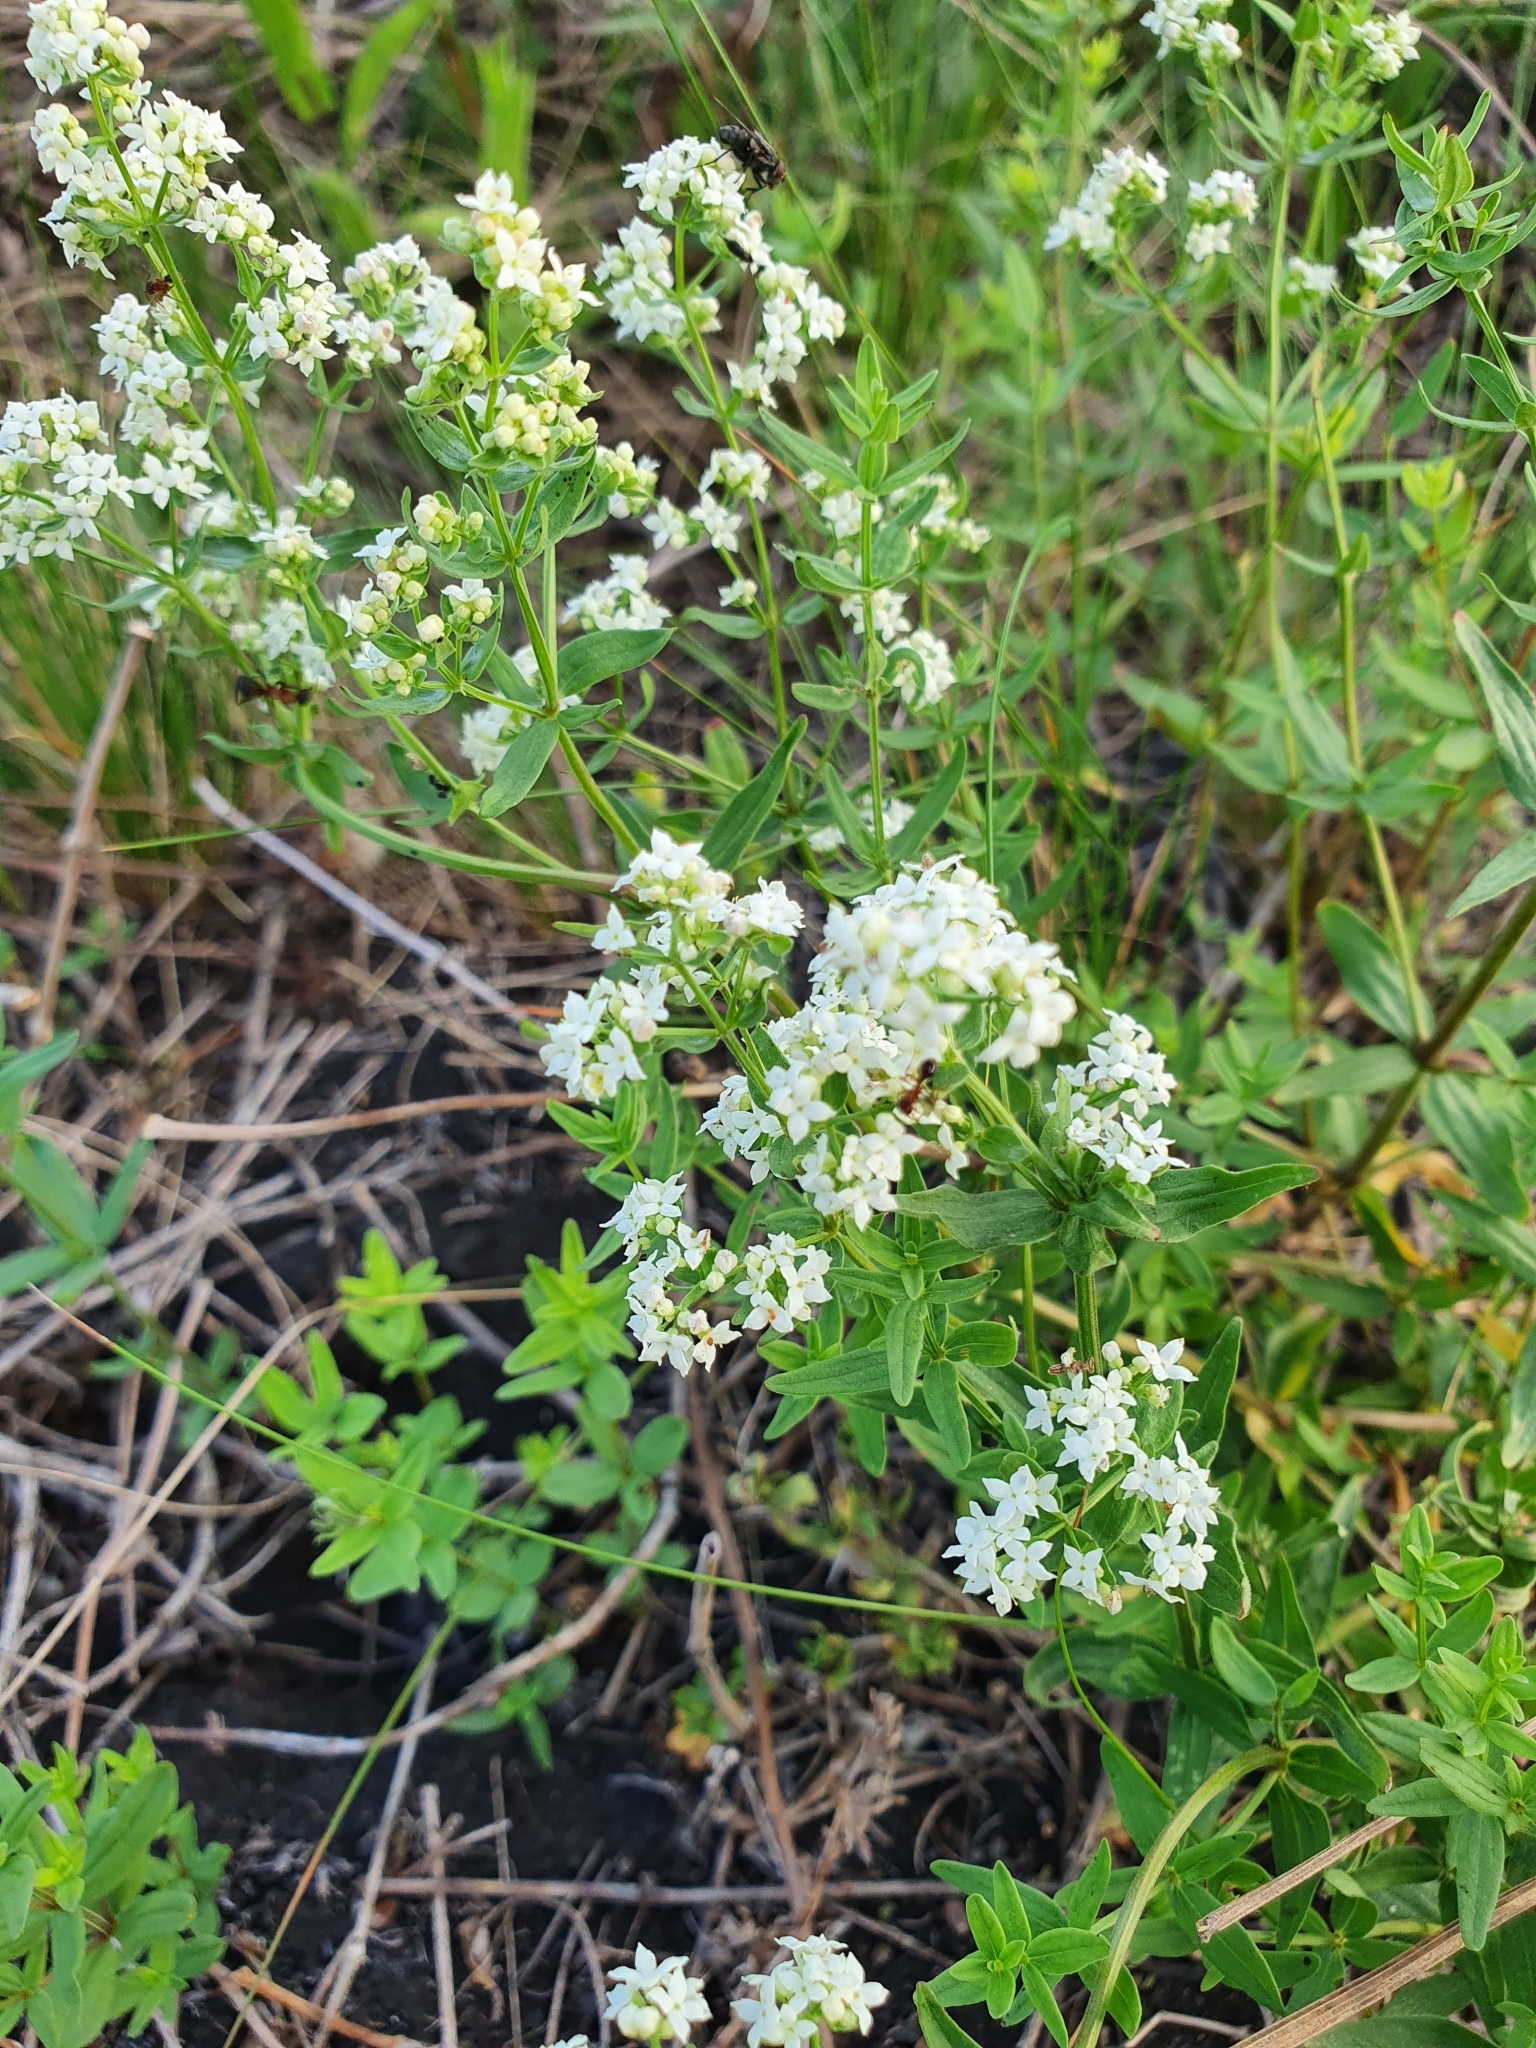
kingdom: Plantae
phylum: Tracheophyta
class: Magnoliopsida
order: Gentianales
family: Rubiaceae
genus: Galium
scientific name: Galium boreale
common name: Northern bedstraw
